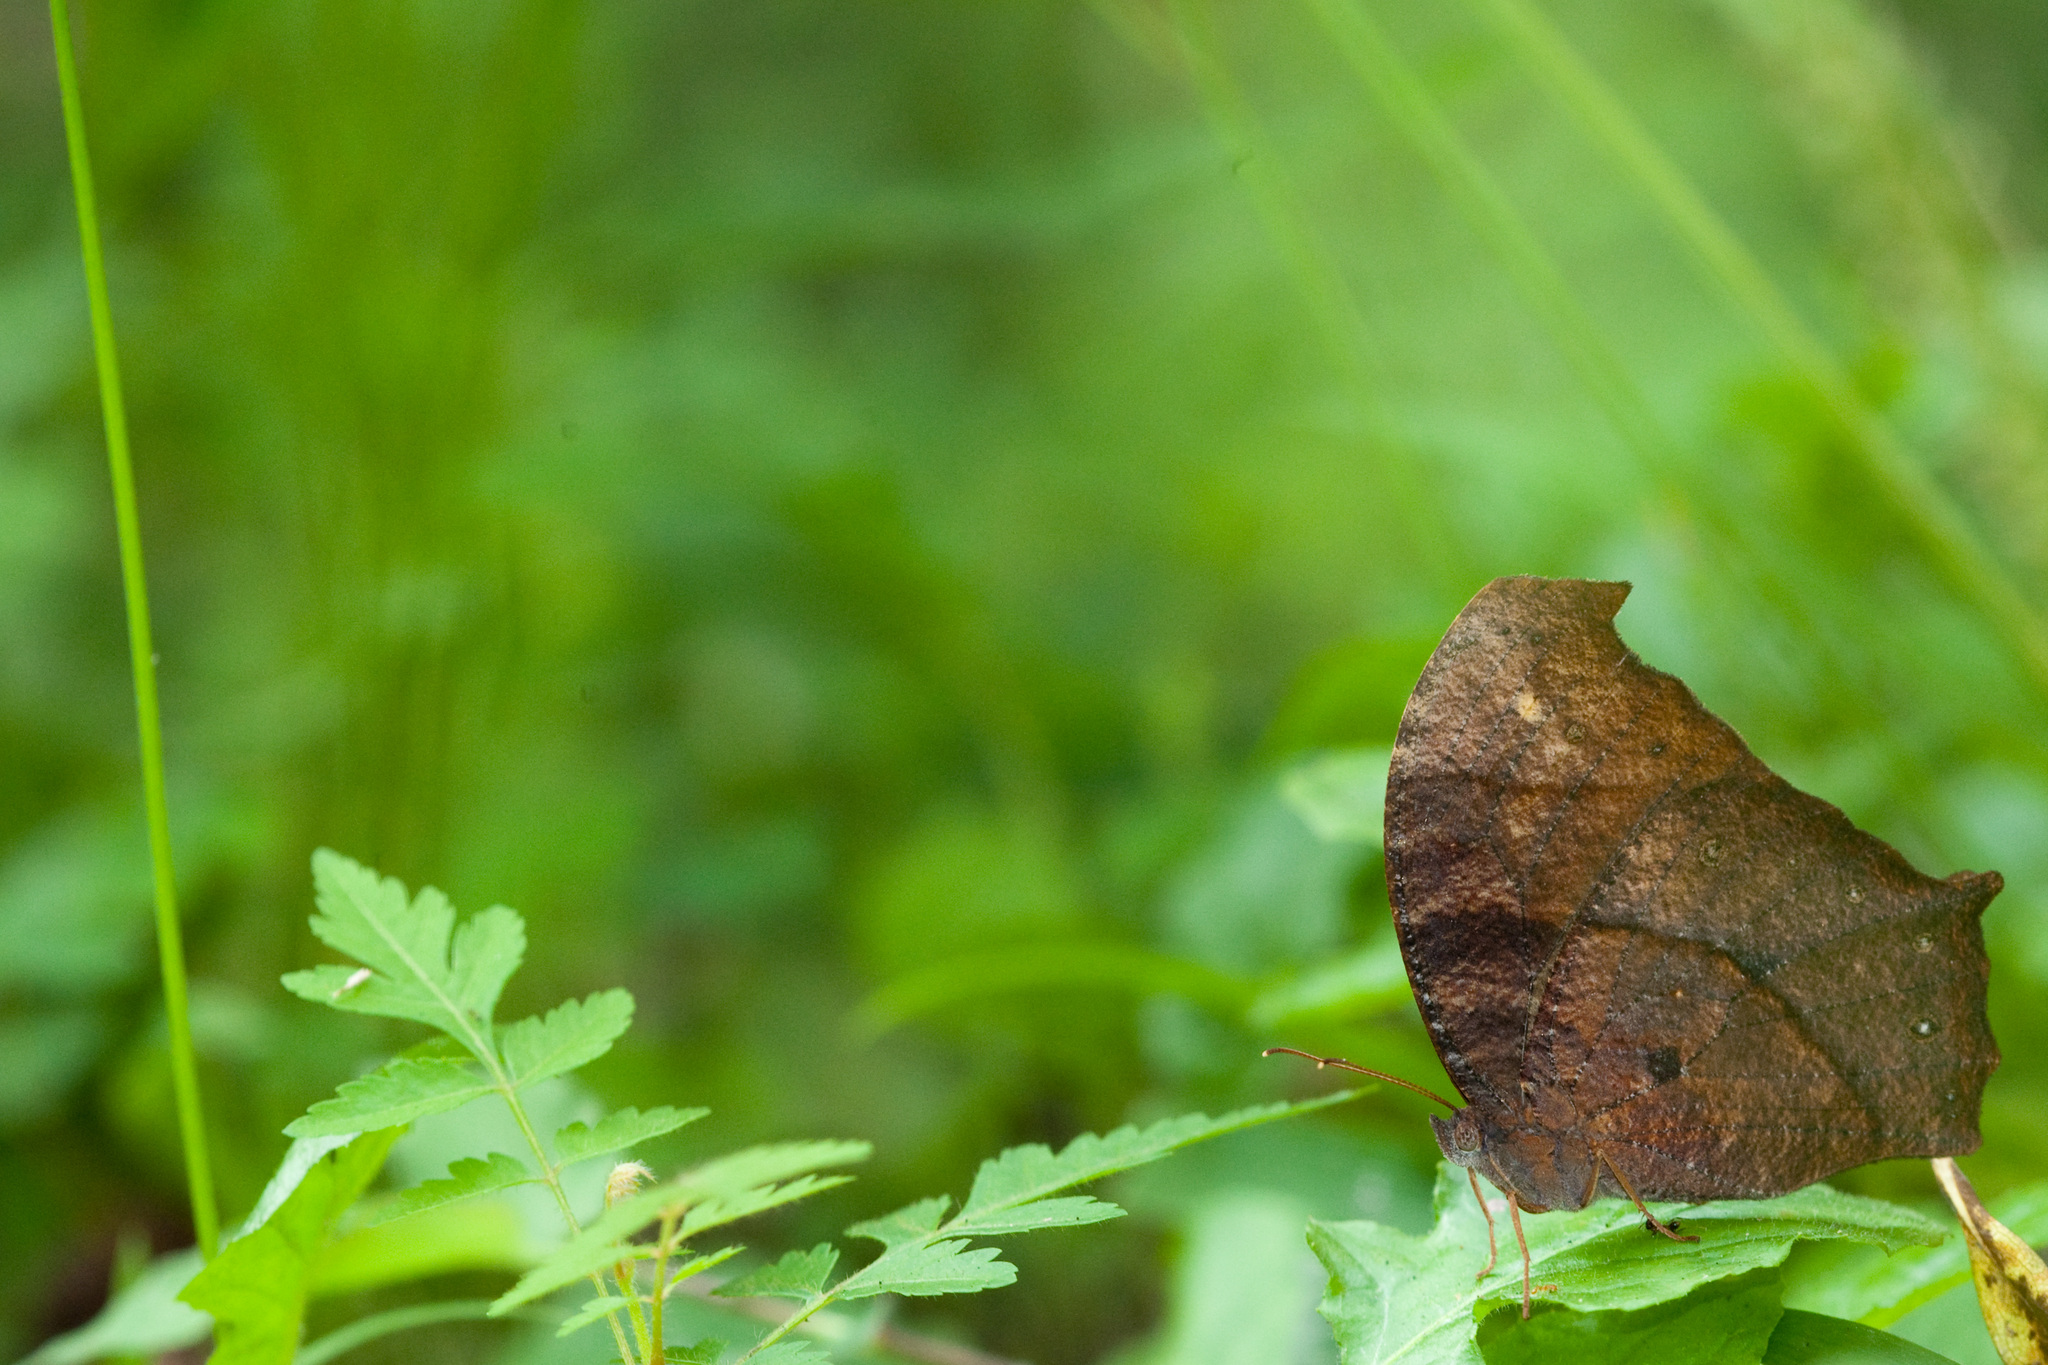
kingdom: Animalia
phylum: Arthropoda
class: Insecta
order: Lepidoptera
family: Nymphalidae
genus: Melanitis
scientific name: Melanitis phedima
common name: Dark evening brown
